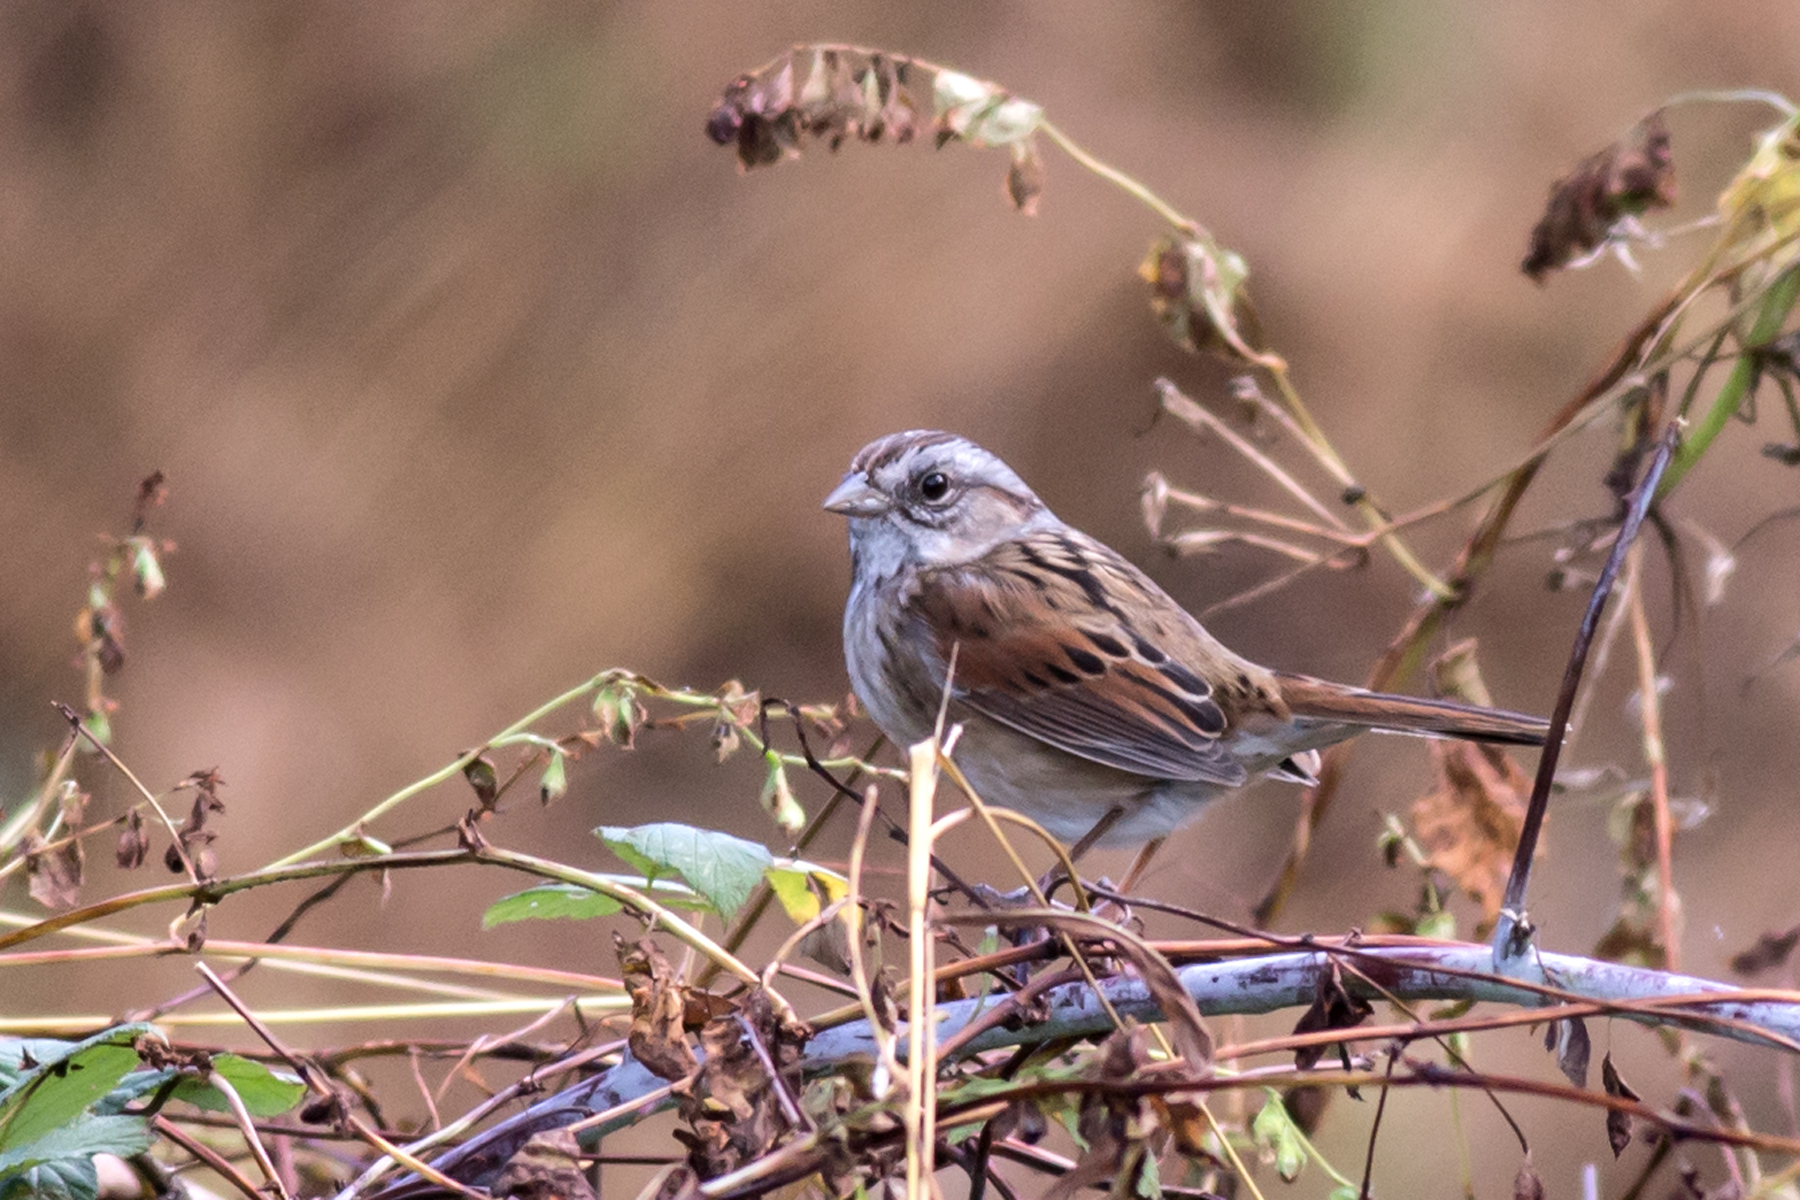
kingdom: Animalia
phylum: Chordata
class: Aves
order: Passeriformes
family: Passerellidae
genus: Melospiza
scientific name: Melospiza georgiana
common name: Swamp sparrow
